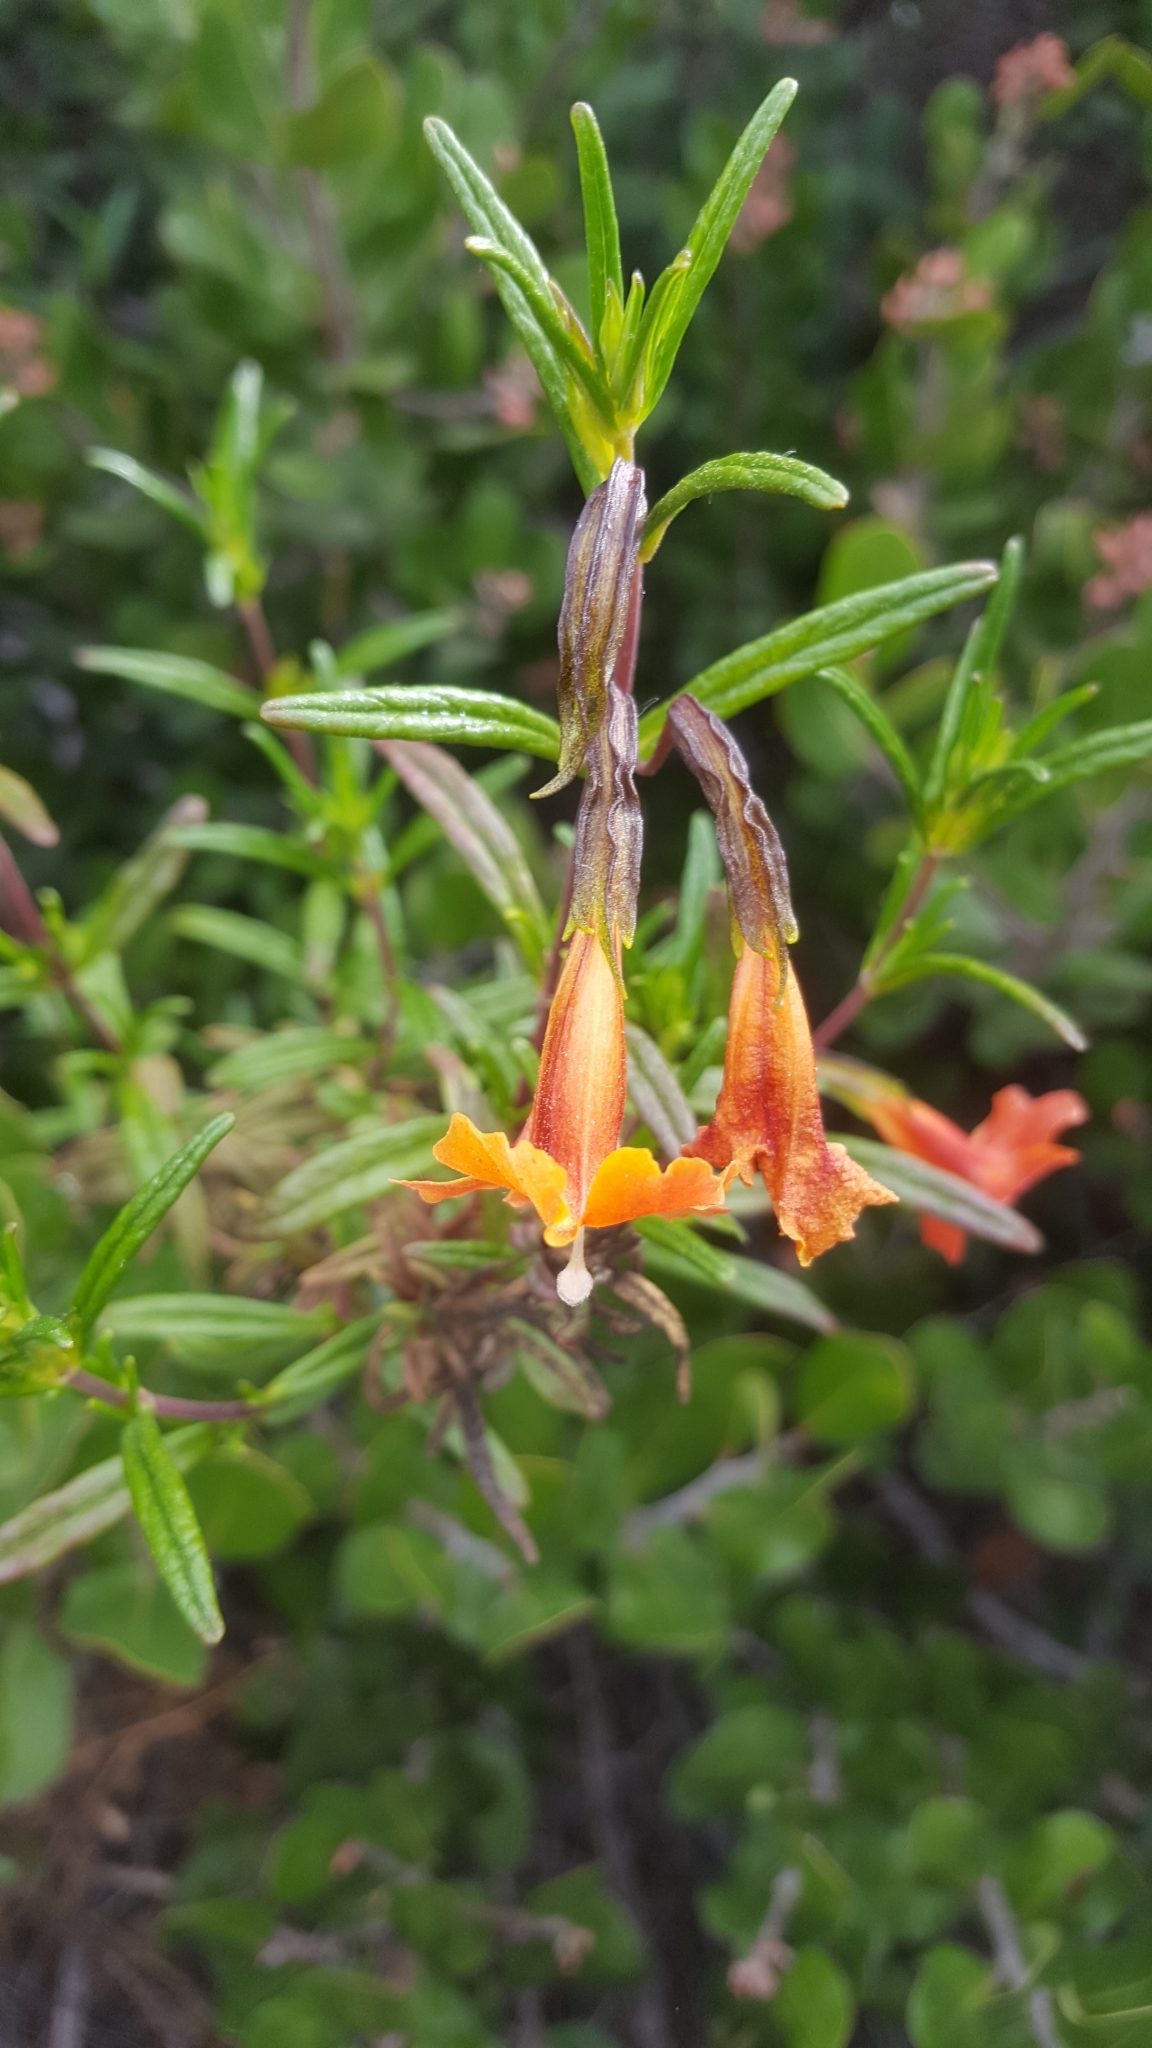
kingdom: Plantae
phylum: Tracheophyta
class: Magnoliopsida
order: Lamiales
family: Phrymaceae
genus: Diplacus
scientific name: Diplacus australis
